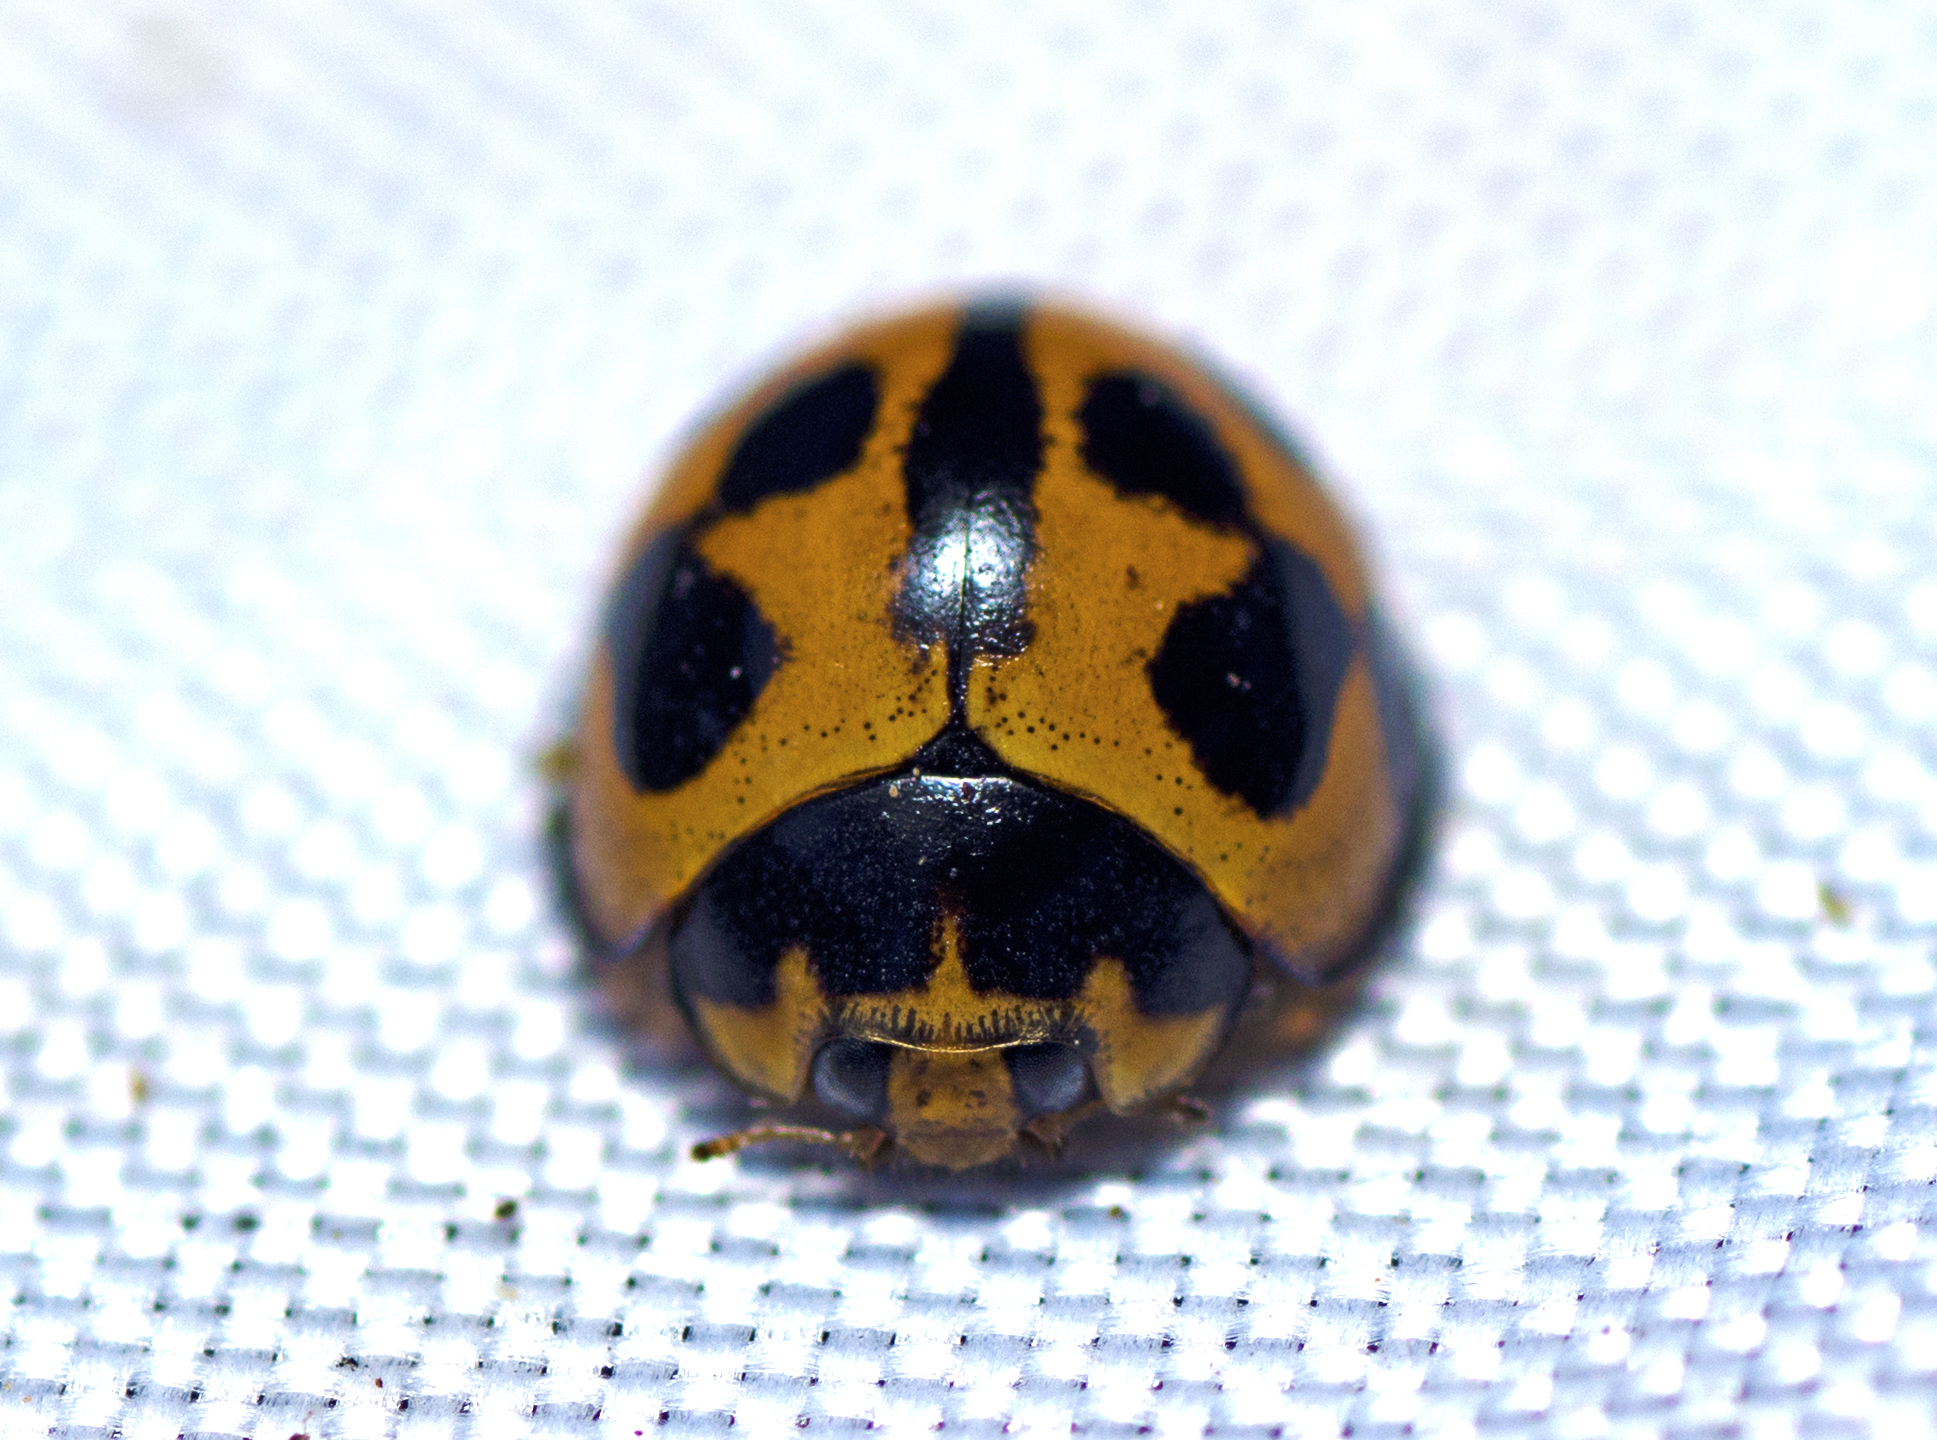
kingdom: Animalia
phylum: Arthropoda
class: Insecta
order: Coleoptera
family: Coccinellidae
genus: Coelophora
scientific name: Coelophora inaequalis
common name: Common australian lady beetle
